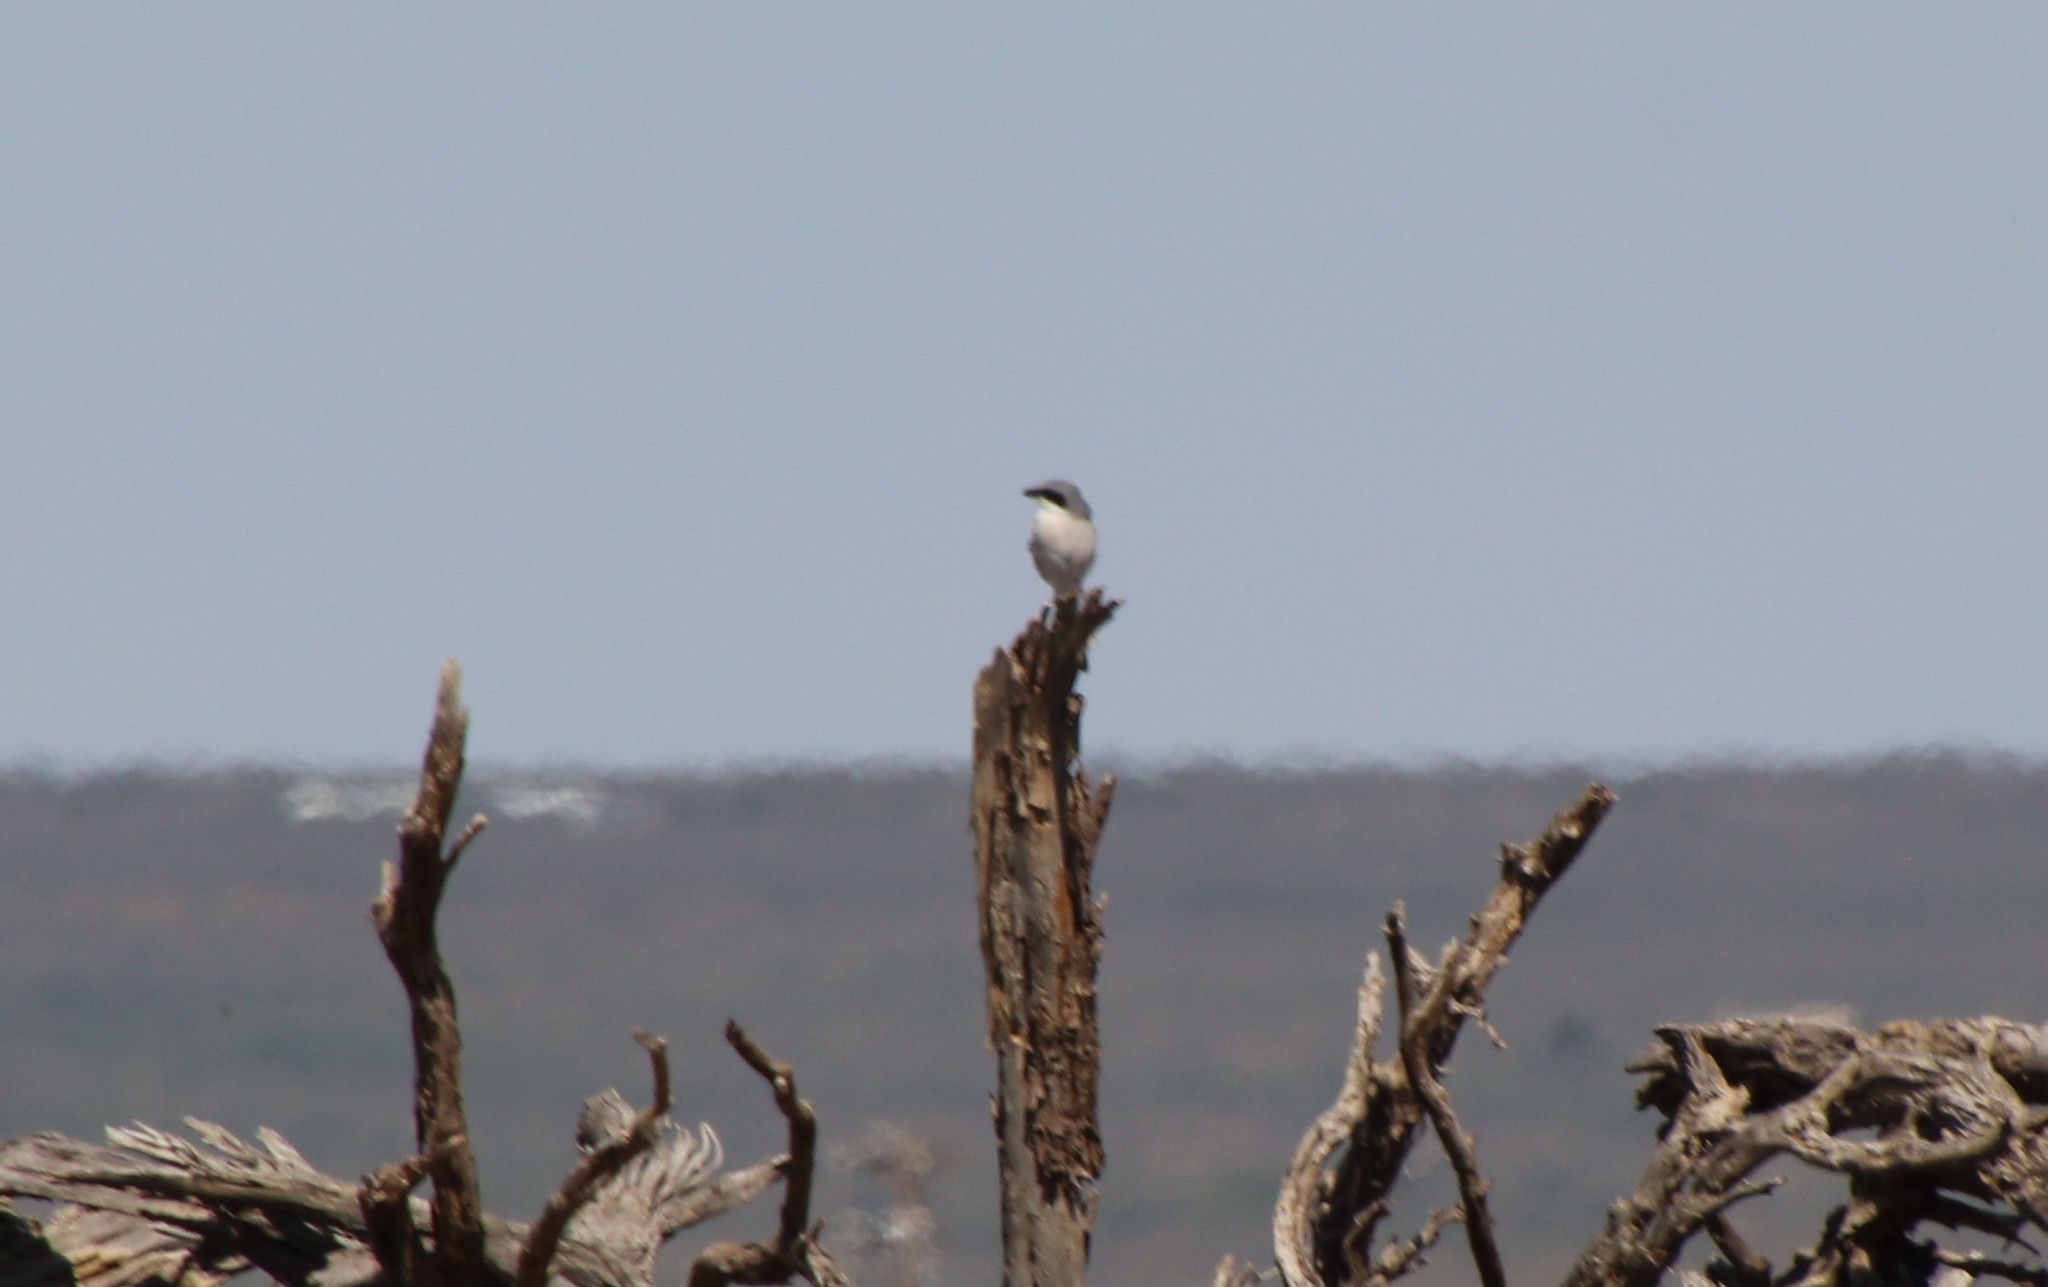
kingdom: Animalia
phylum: Chordata
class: Aves
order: Passeriformes
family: Laniidae
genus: Lanius
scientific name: Lanius ludovicianus
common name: Loggerhead shrike
